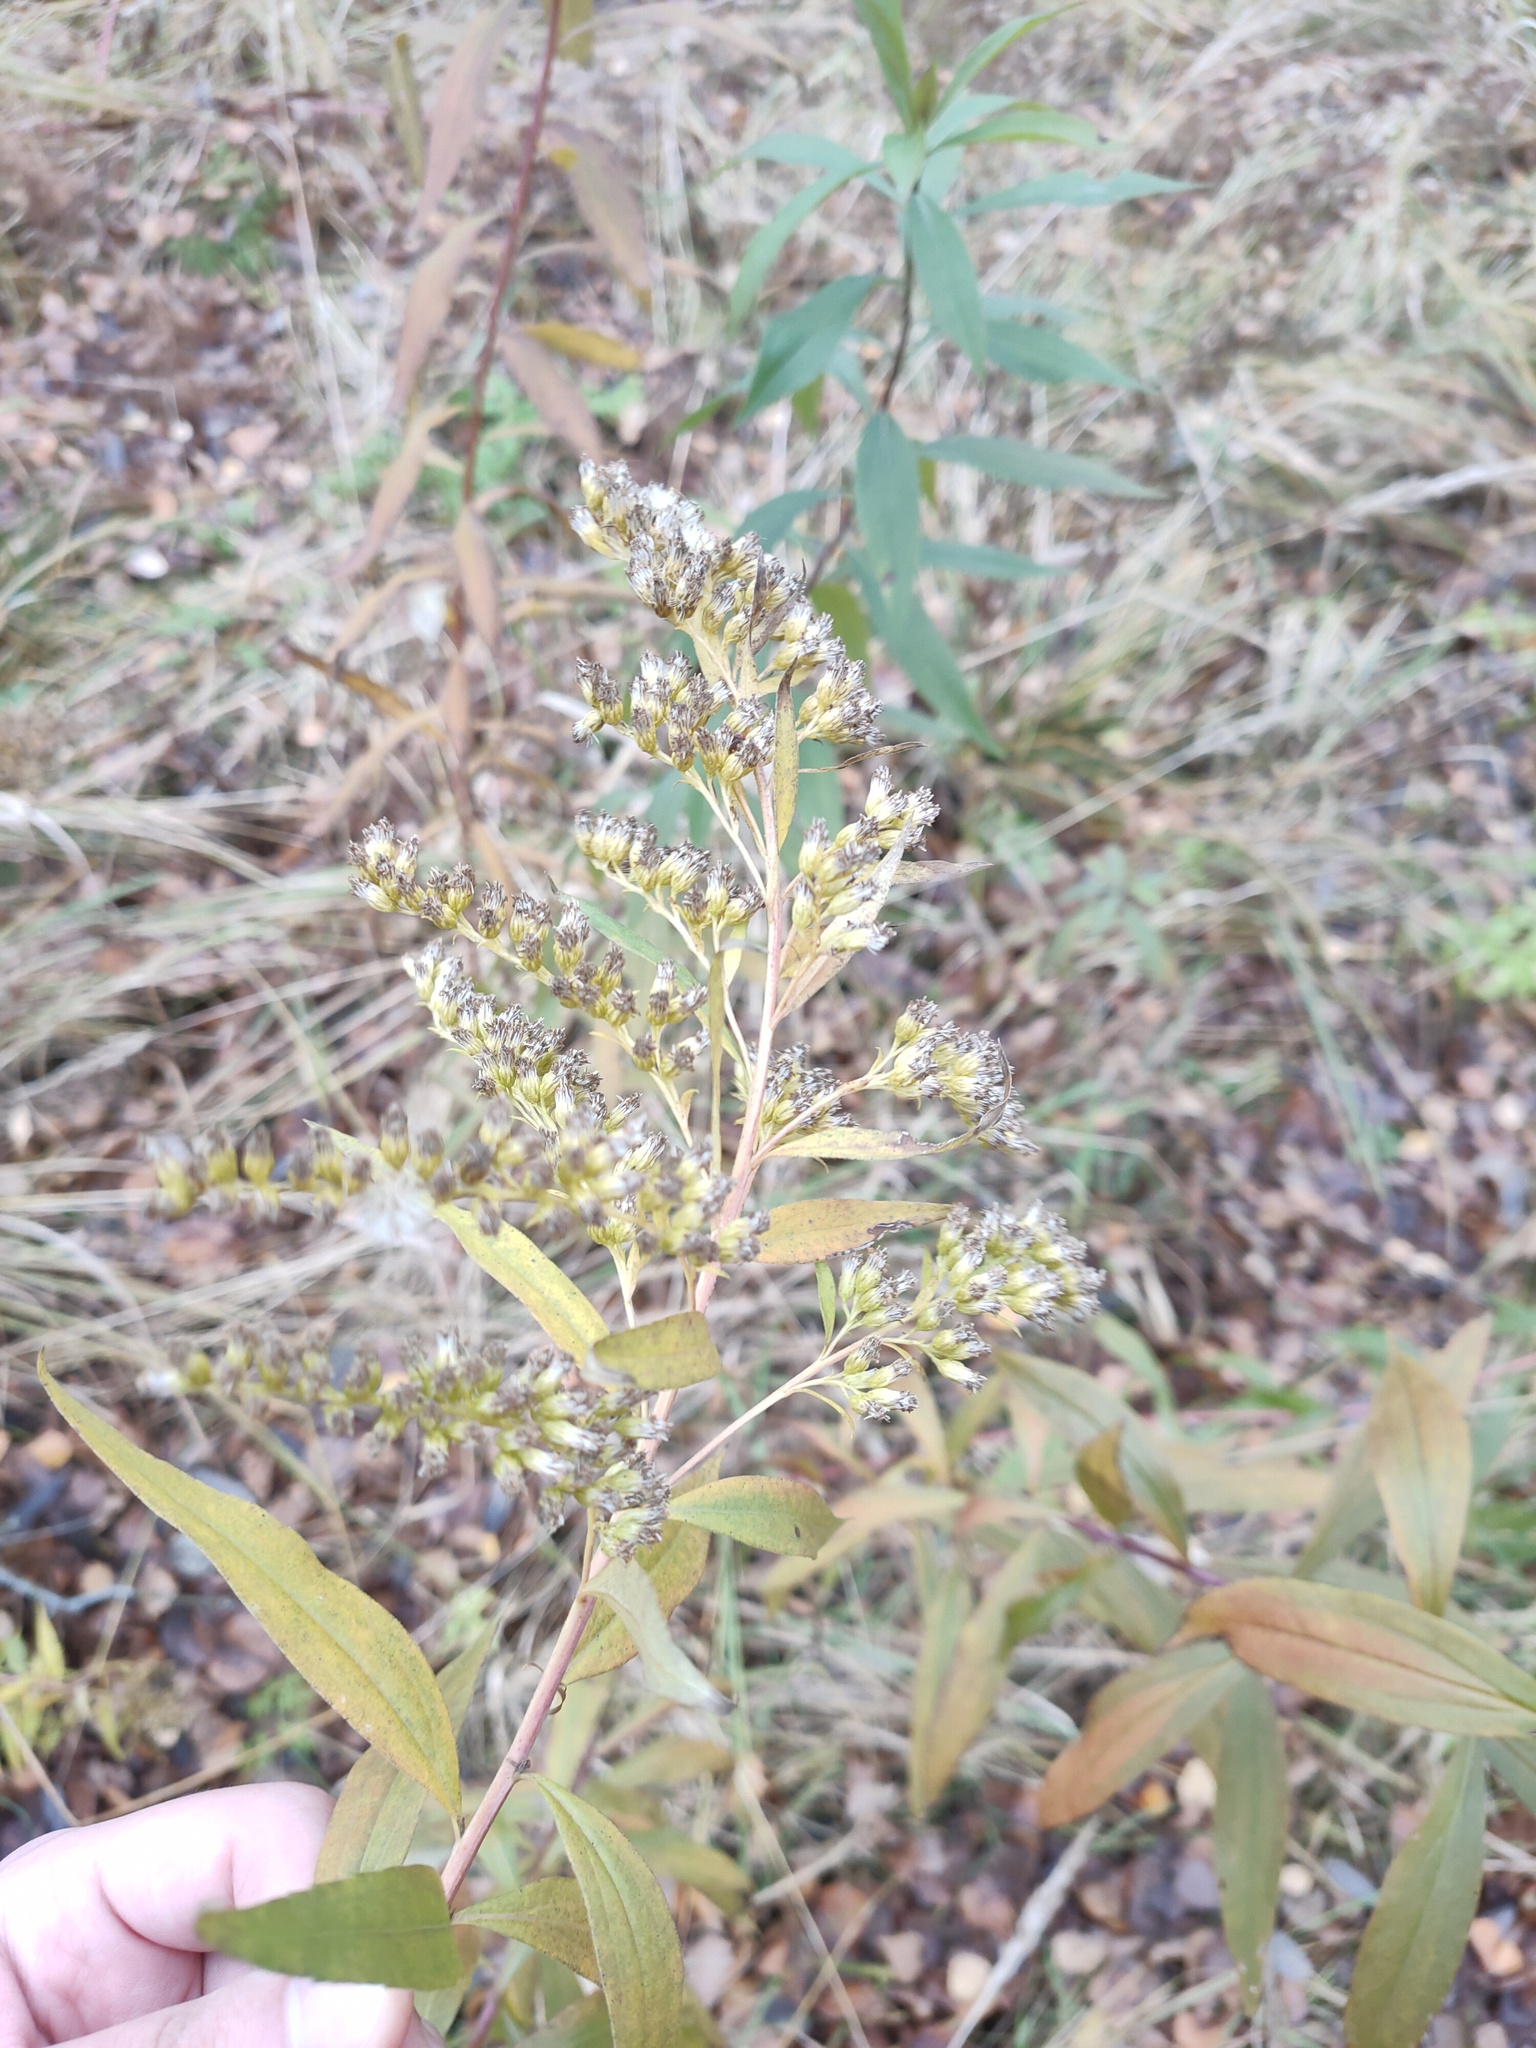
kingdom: Plantae
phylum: Tracheophyta
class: Magnoliopsida
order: Asterales
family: Asteraceae
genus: Solidago
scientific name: Solidago gigantea
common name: Giant goldenrod
